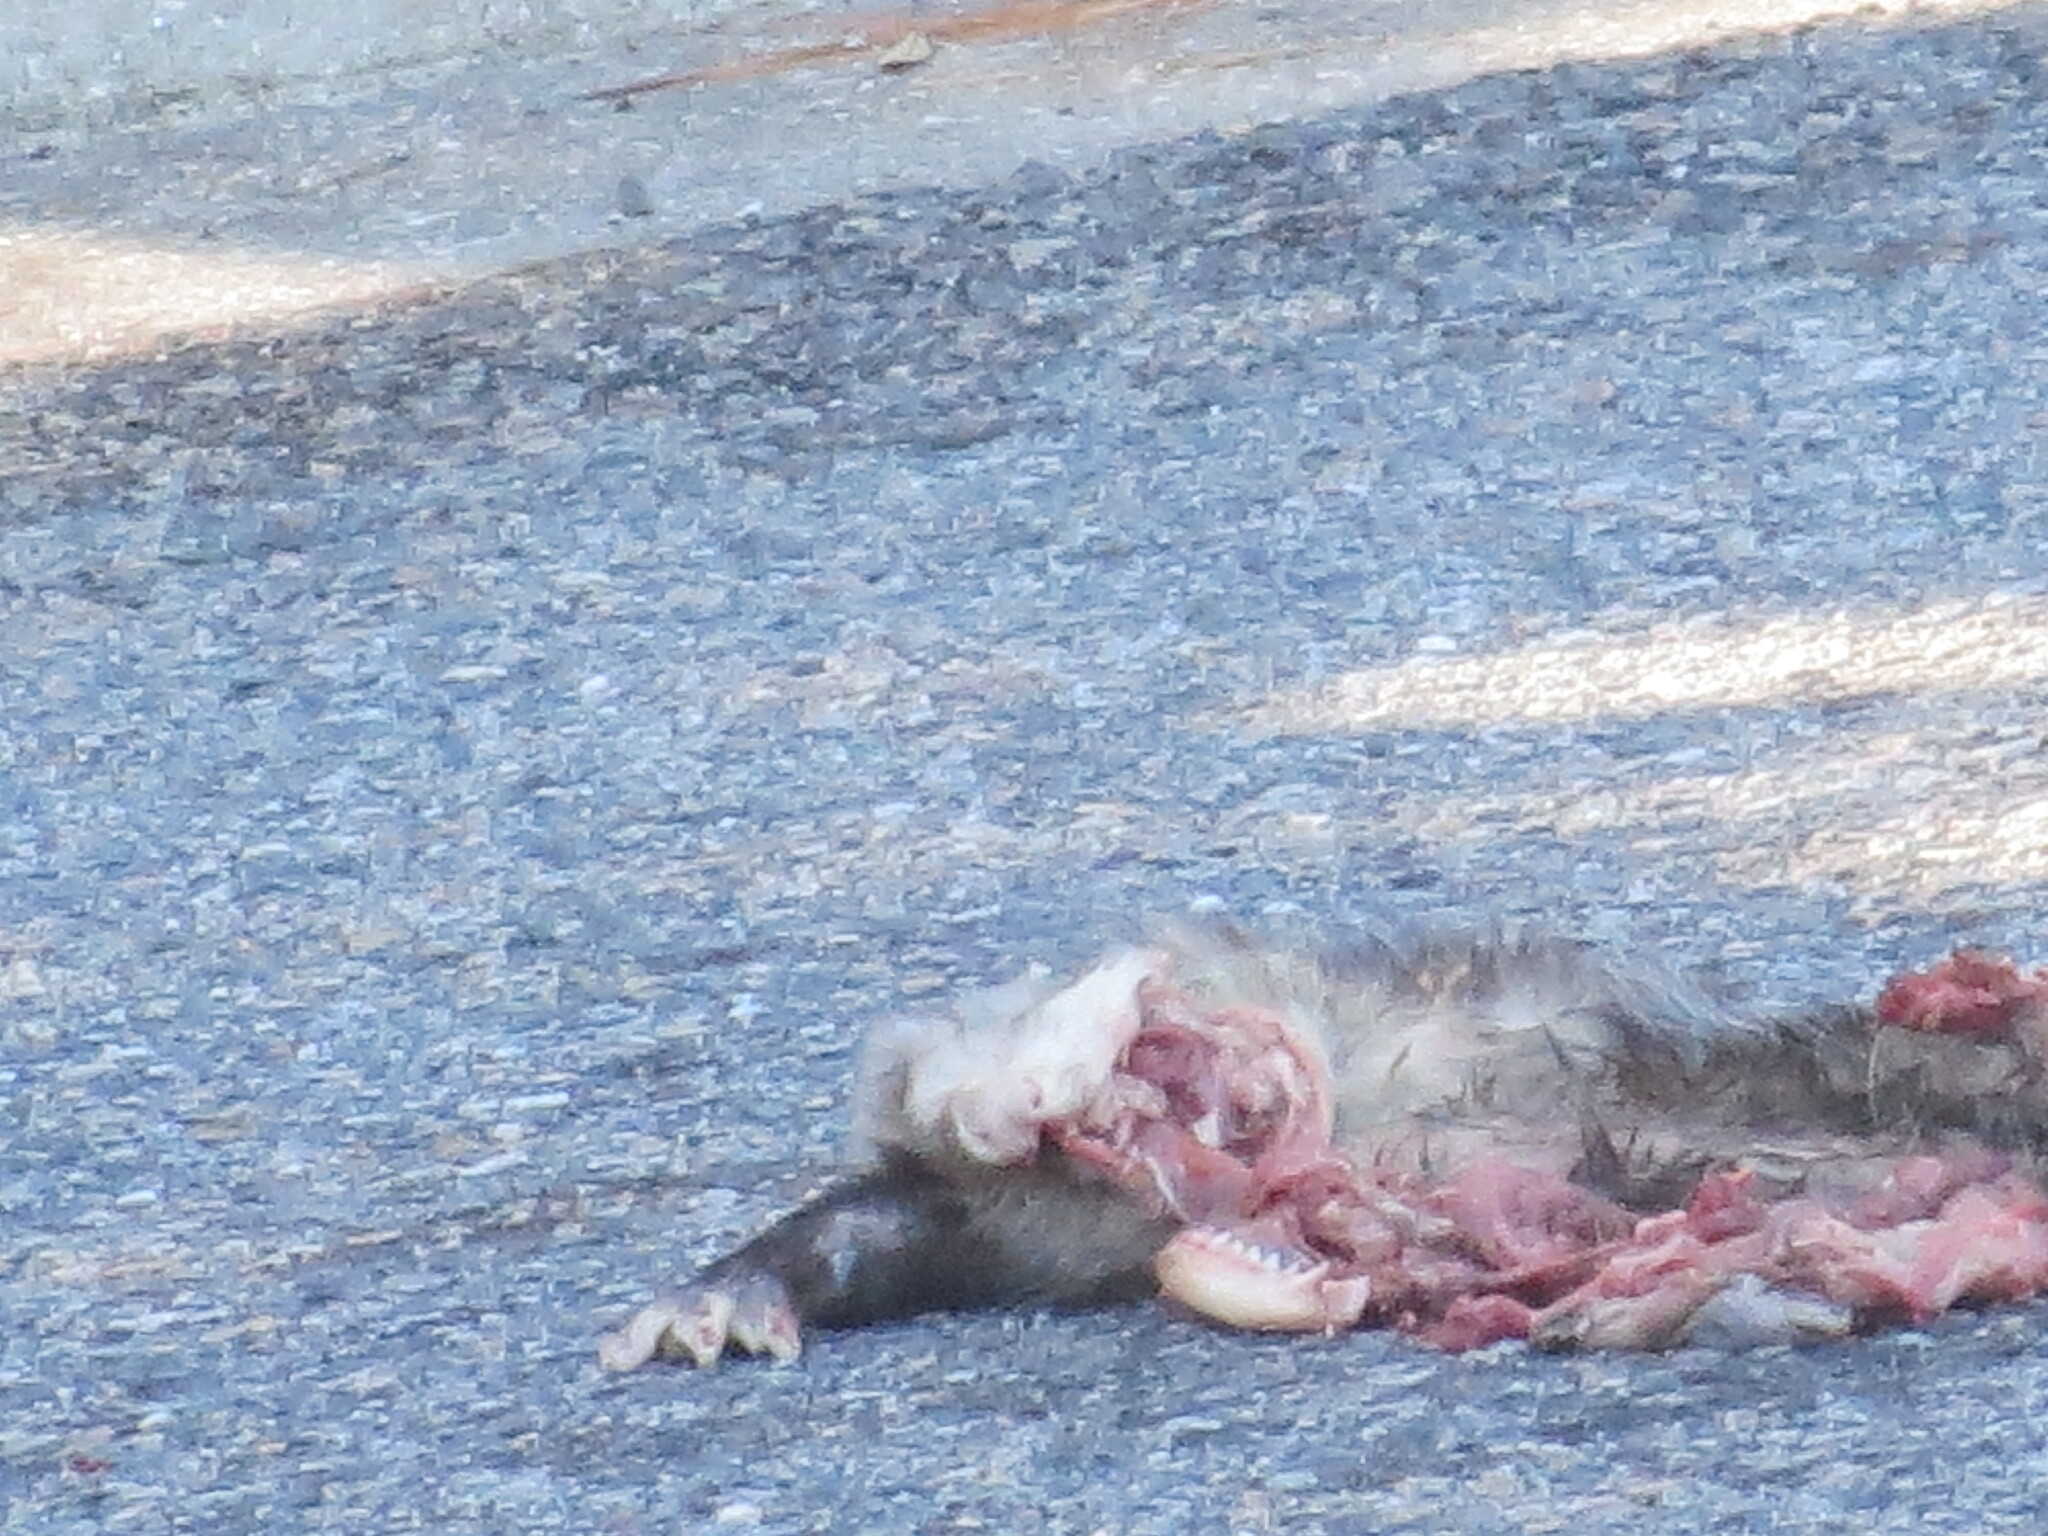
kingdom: Animalia
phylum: Chordata
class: Mammalia
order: Didelphimorphia
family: Didelphidae
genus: Didelphis
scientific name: Didelphis virginiana
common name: Virginia opossum
